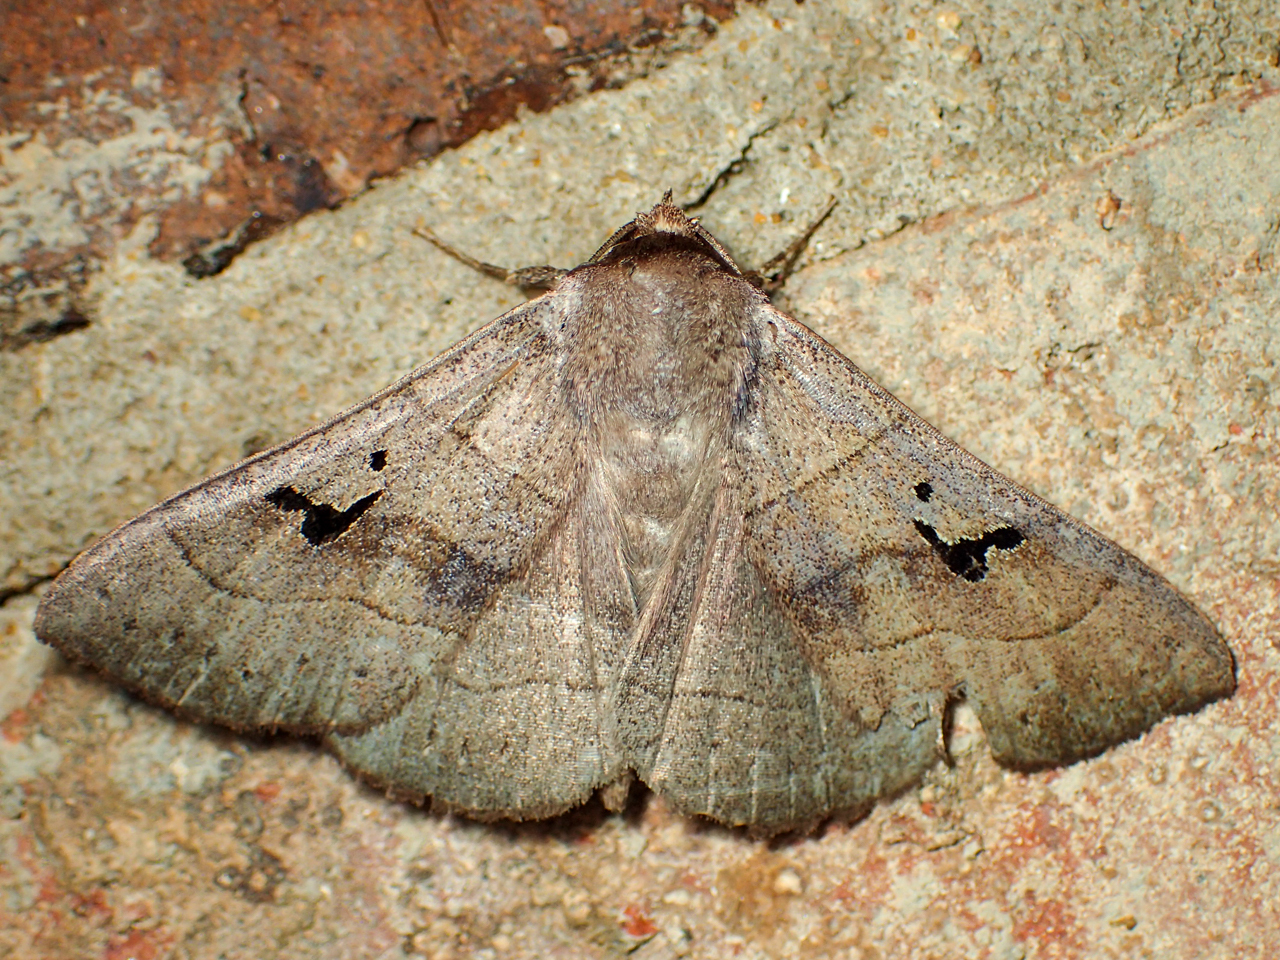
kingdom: Animalia
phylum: Arthropoda
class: Insecta
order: Lepidoptera
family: Erebidae
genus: Panopoda
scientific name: Panopoda carneicosta
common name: Brown panopoda moth
